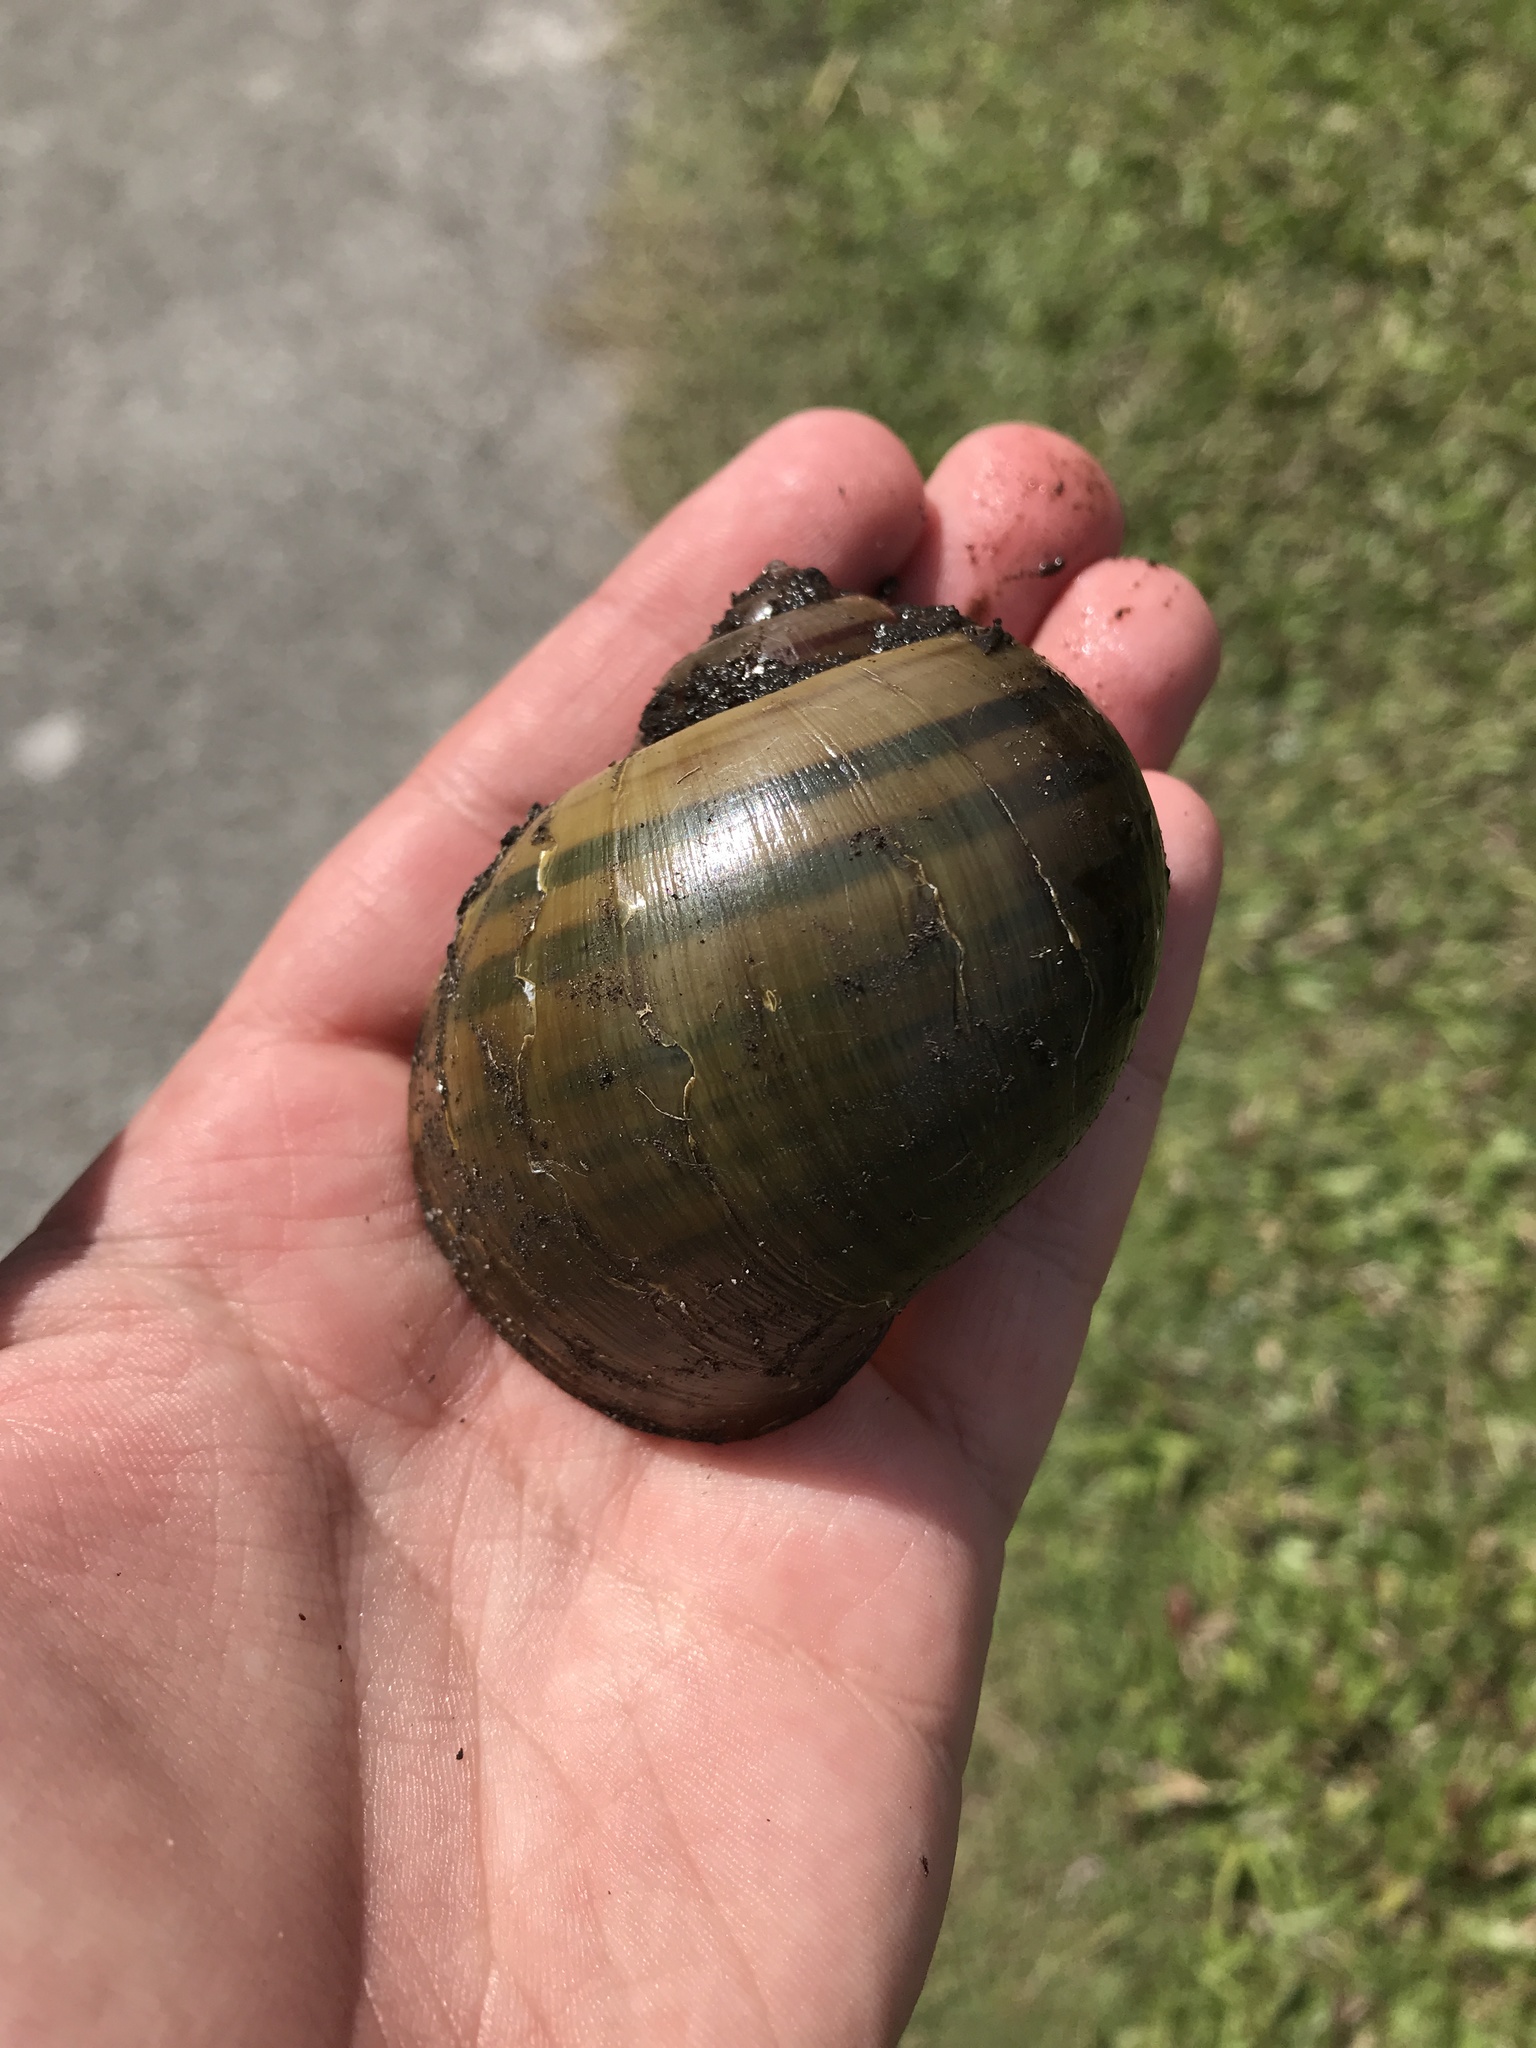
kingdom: Animalia
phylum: Mollusca
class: Gastropoda
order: Architaenioglossa
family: Ampullariidae
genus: Pomacea
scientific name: Pomacea maculata
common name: Giant applesnail
